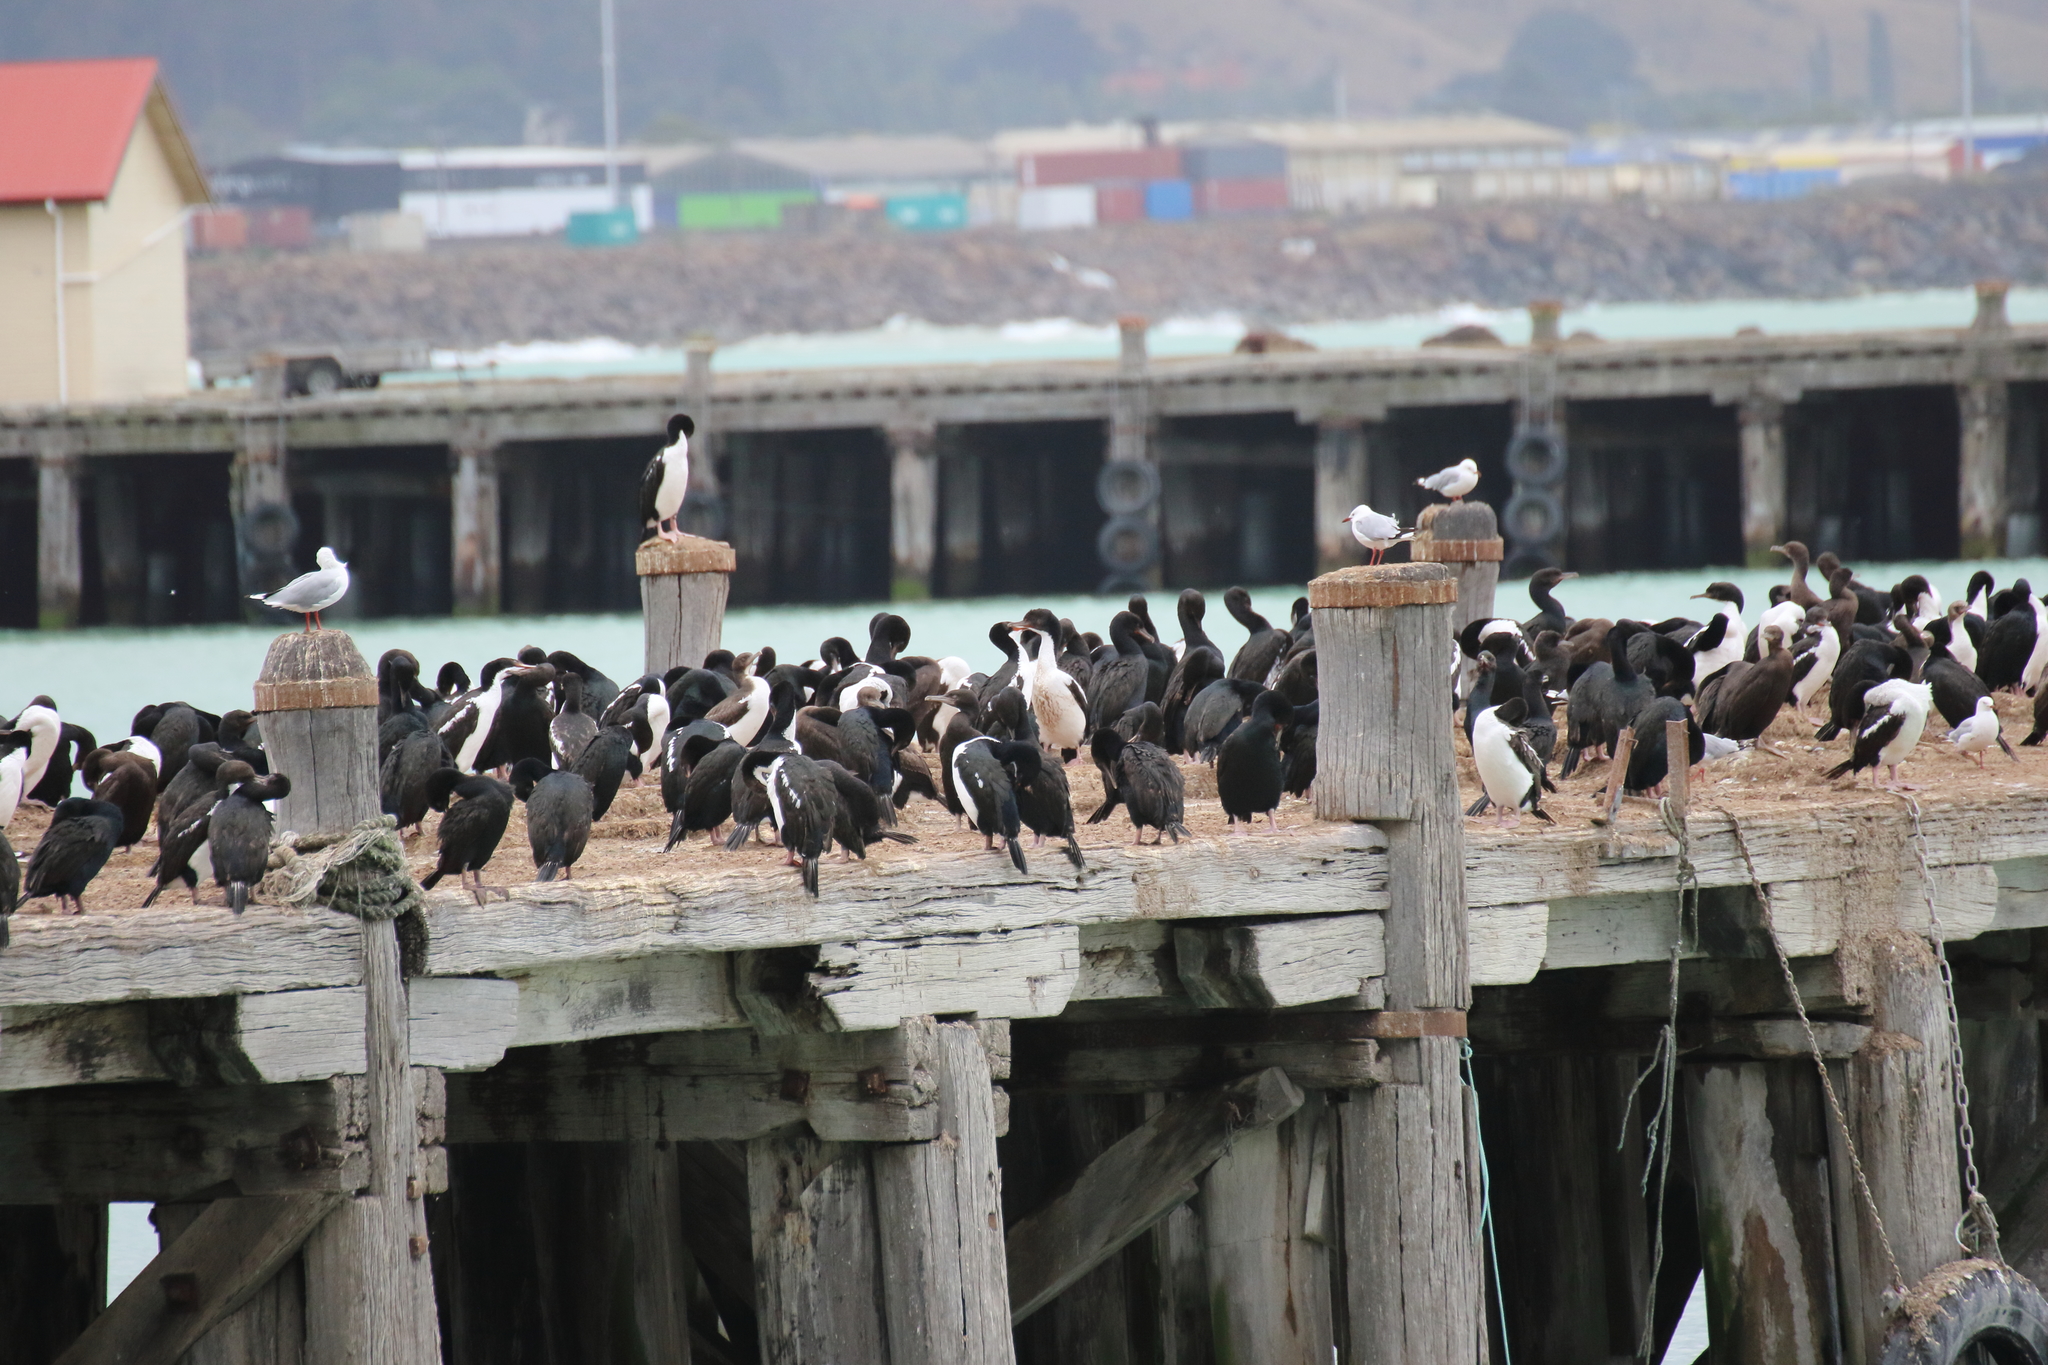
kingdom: Animalia
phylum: Chordata
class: Aves
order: Suliformes
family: Phalacrocoracidae
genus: Leucocarbo
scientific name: Leucocarbo chalconotus
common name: Stewart shag
